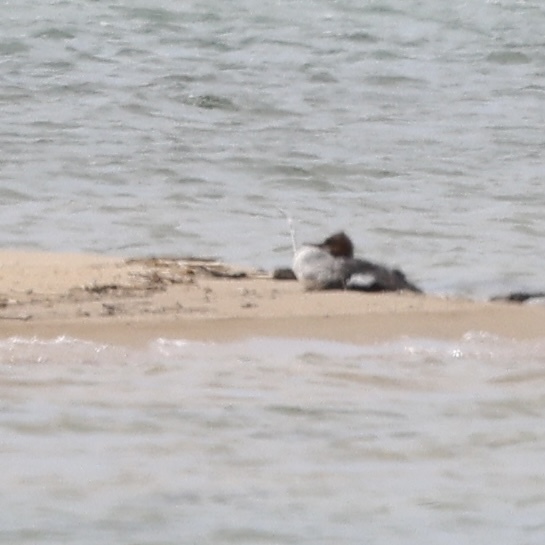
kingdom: Animalia
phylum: Chordata
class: Aves
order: Anseriformes
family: Anatidae
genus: Mergus
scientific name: Mergus serrator
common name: Red-breasted merganser
